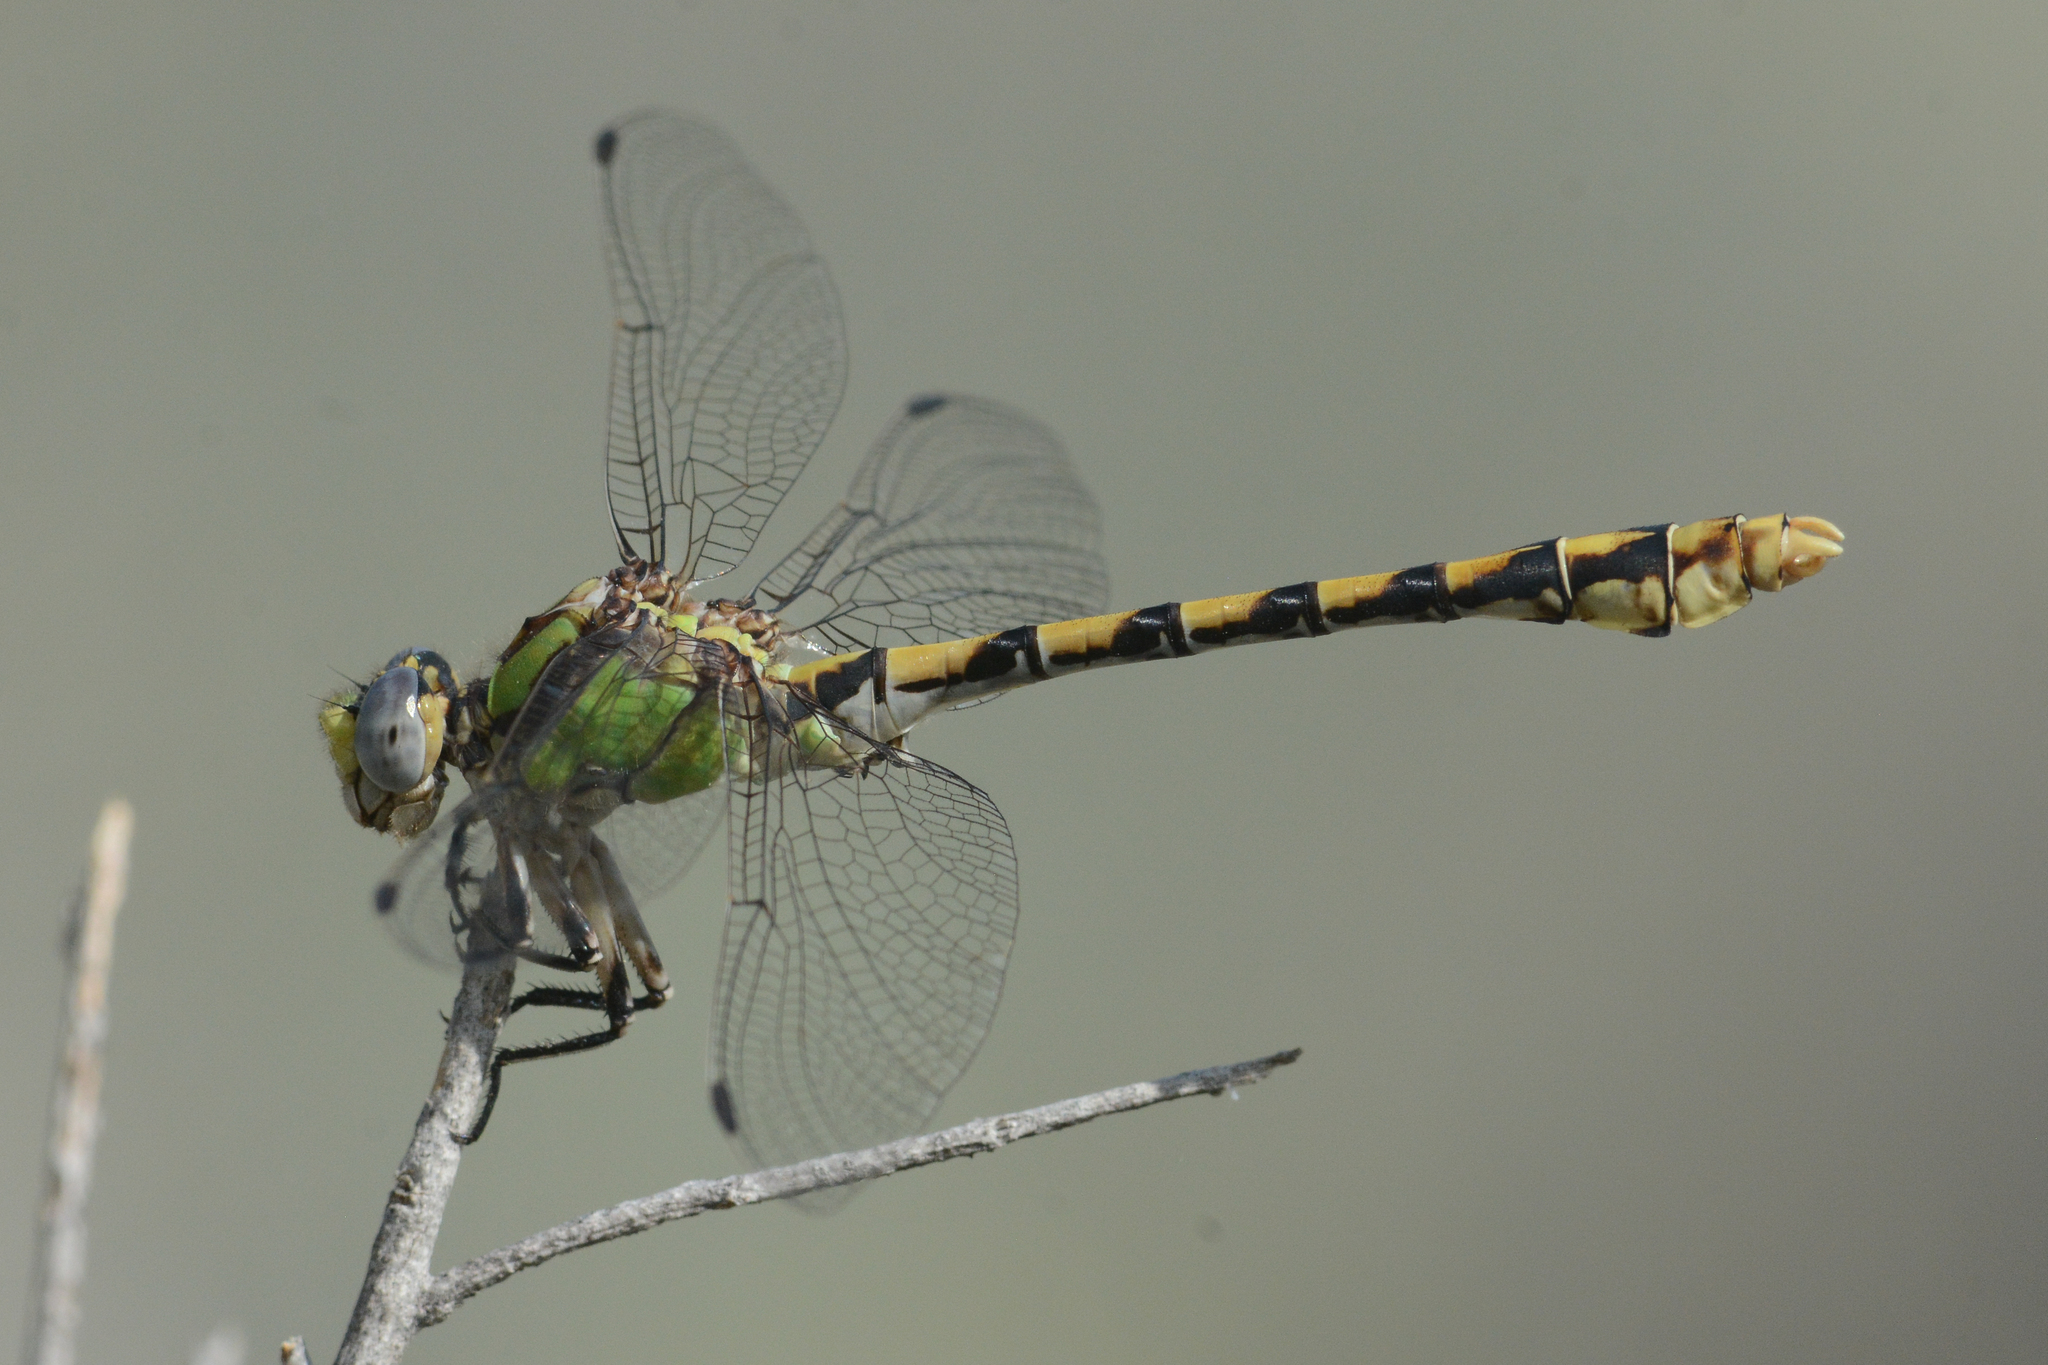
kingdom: Animalia
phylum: Arthropoda
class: Insecta
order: Odonata
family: Gomphidae
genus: Ophiogomphus
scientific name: Ophiogomphus occidentis
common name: Sinuous snaketail
